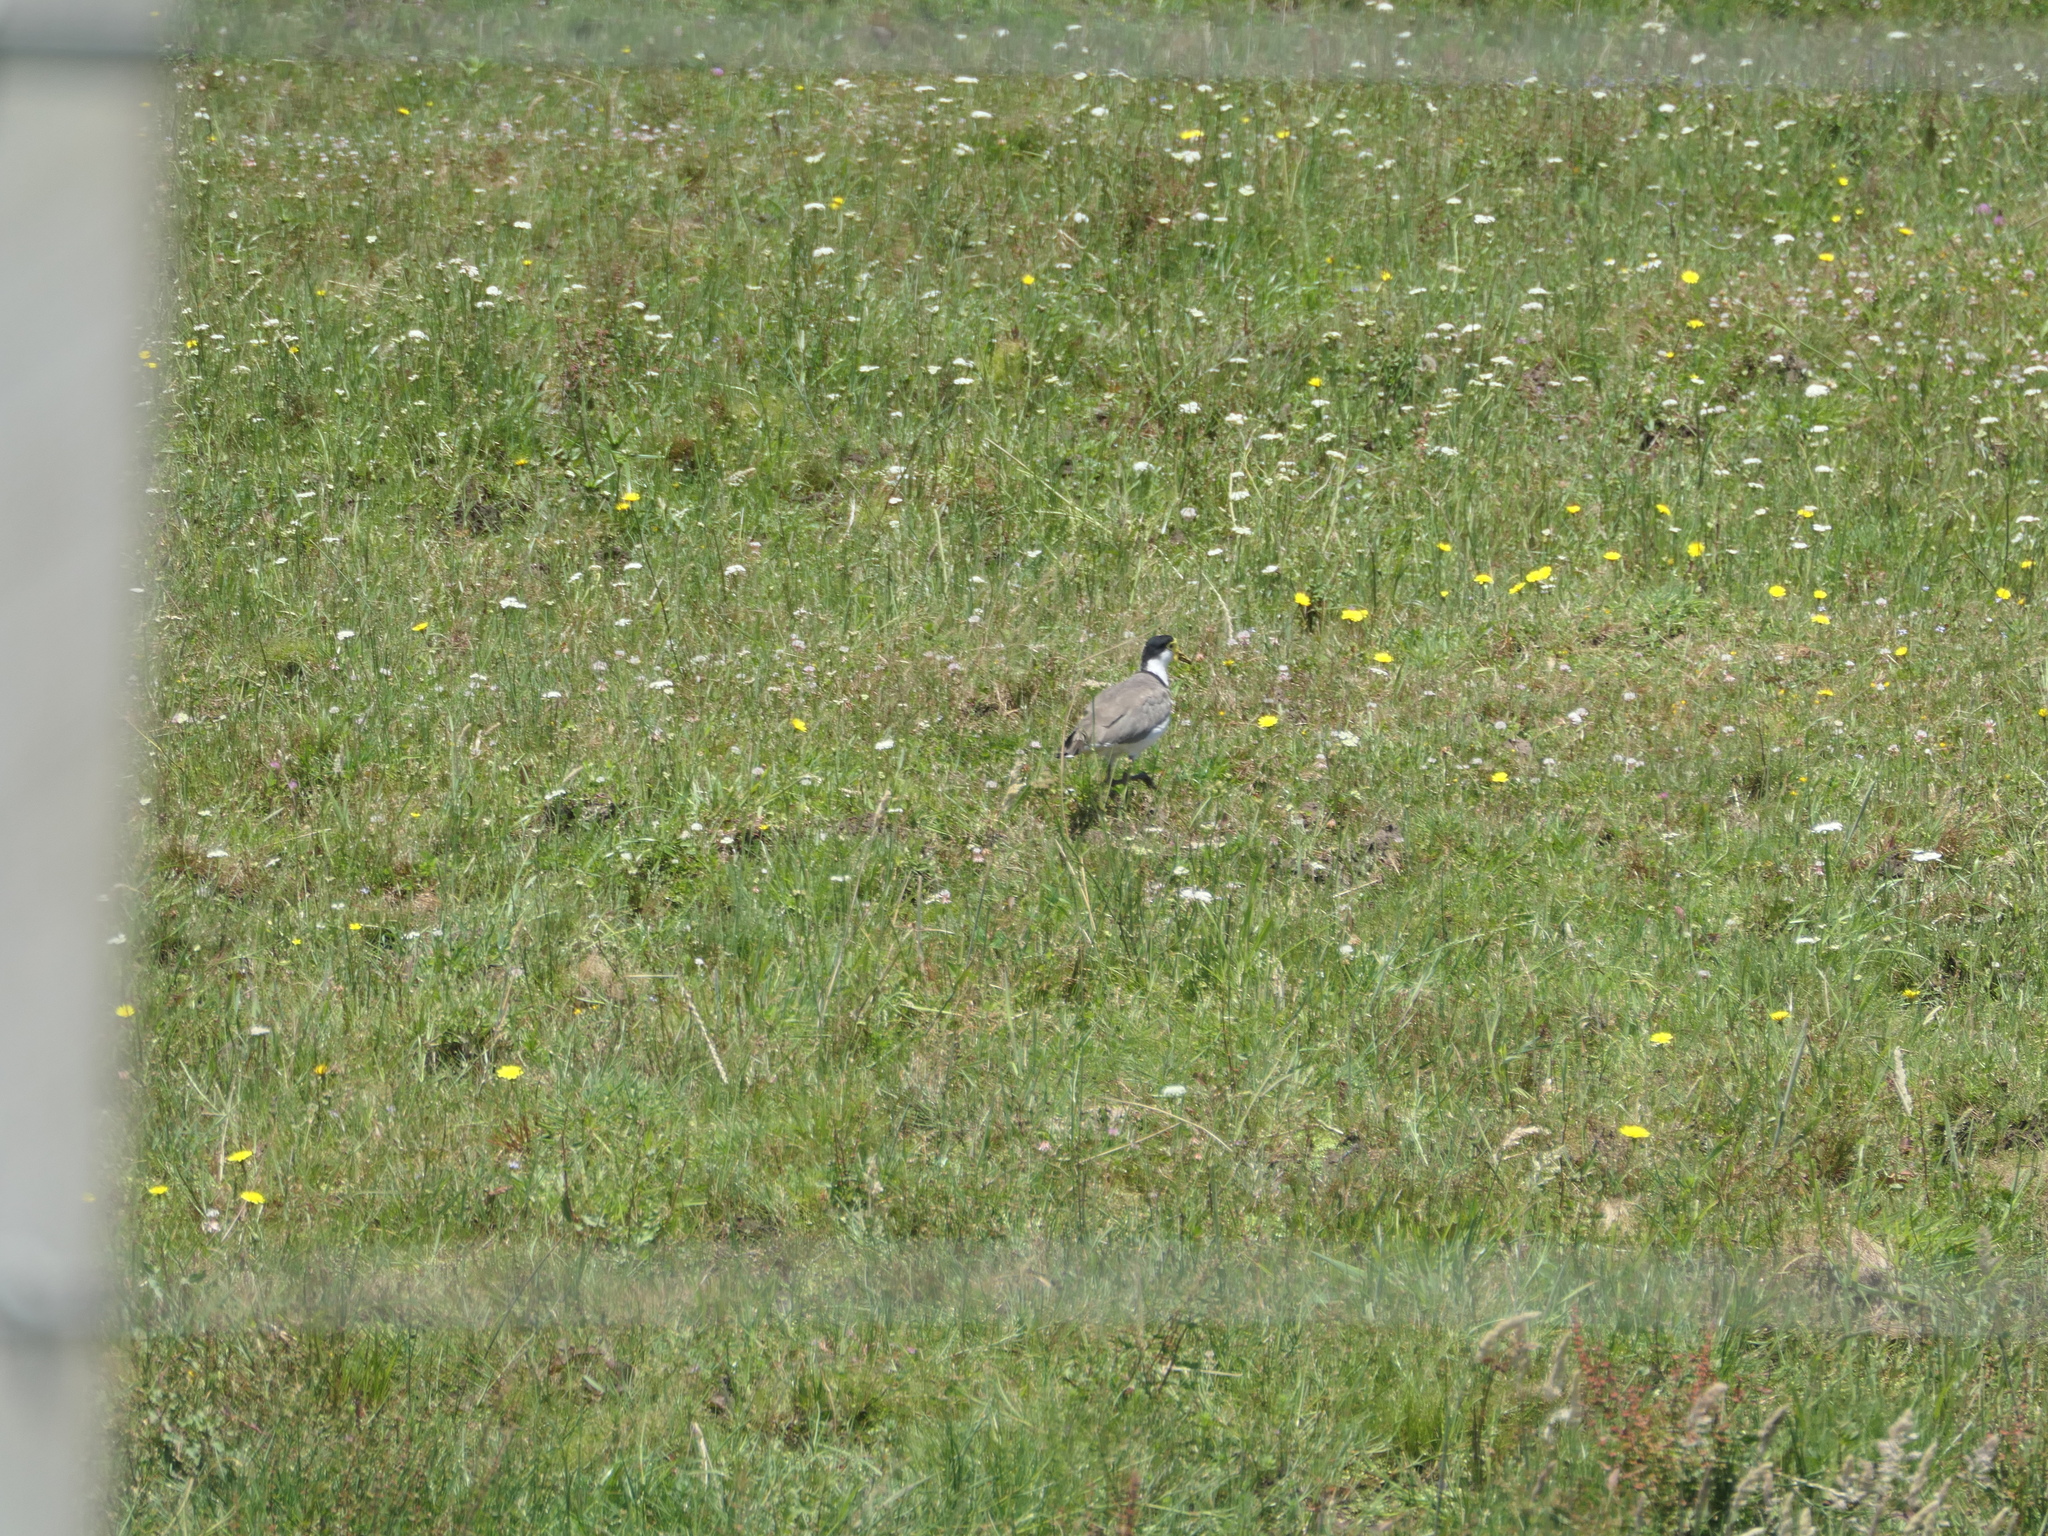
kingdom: Animalia
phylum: Chordata
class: Aves
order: Charadriiformes
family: Charadriidae
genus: Vanellus
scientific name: Vanellus miles
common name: Masked lapwing
